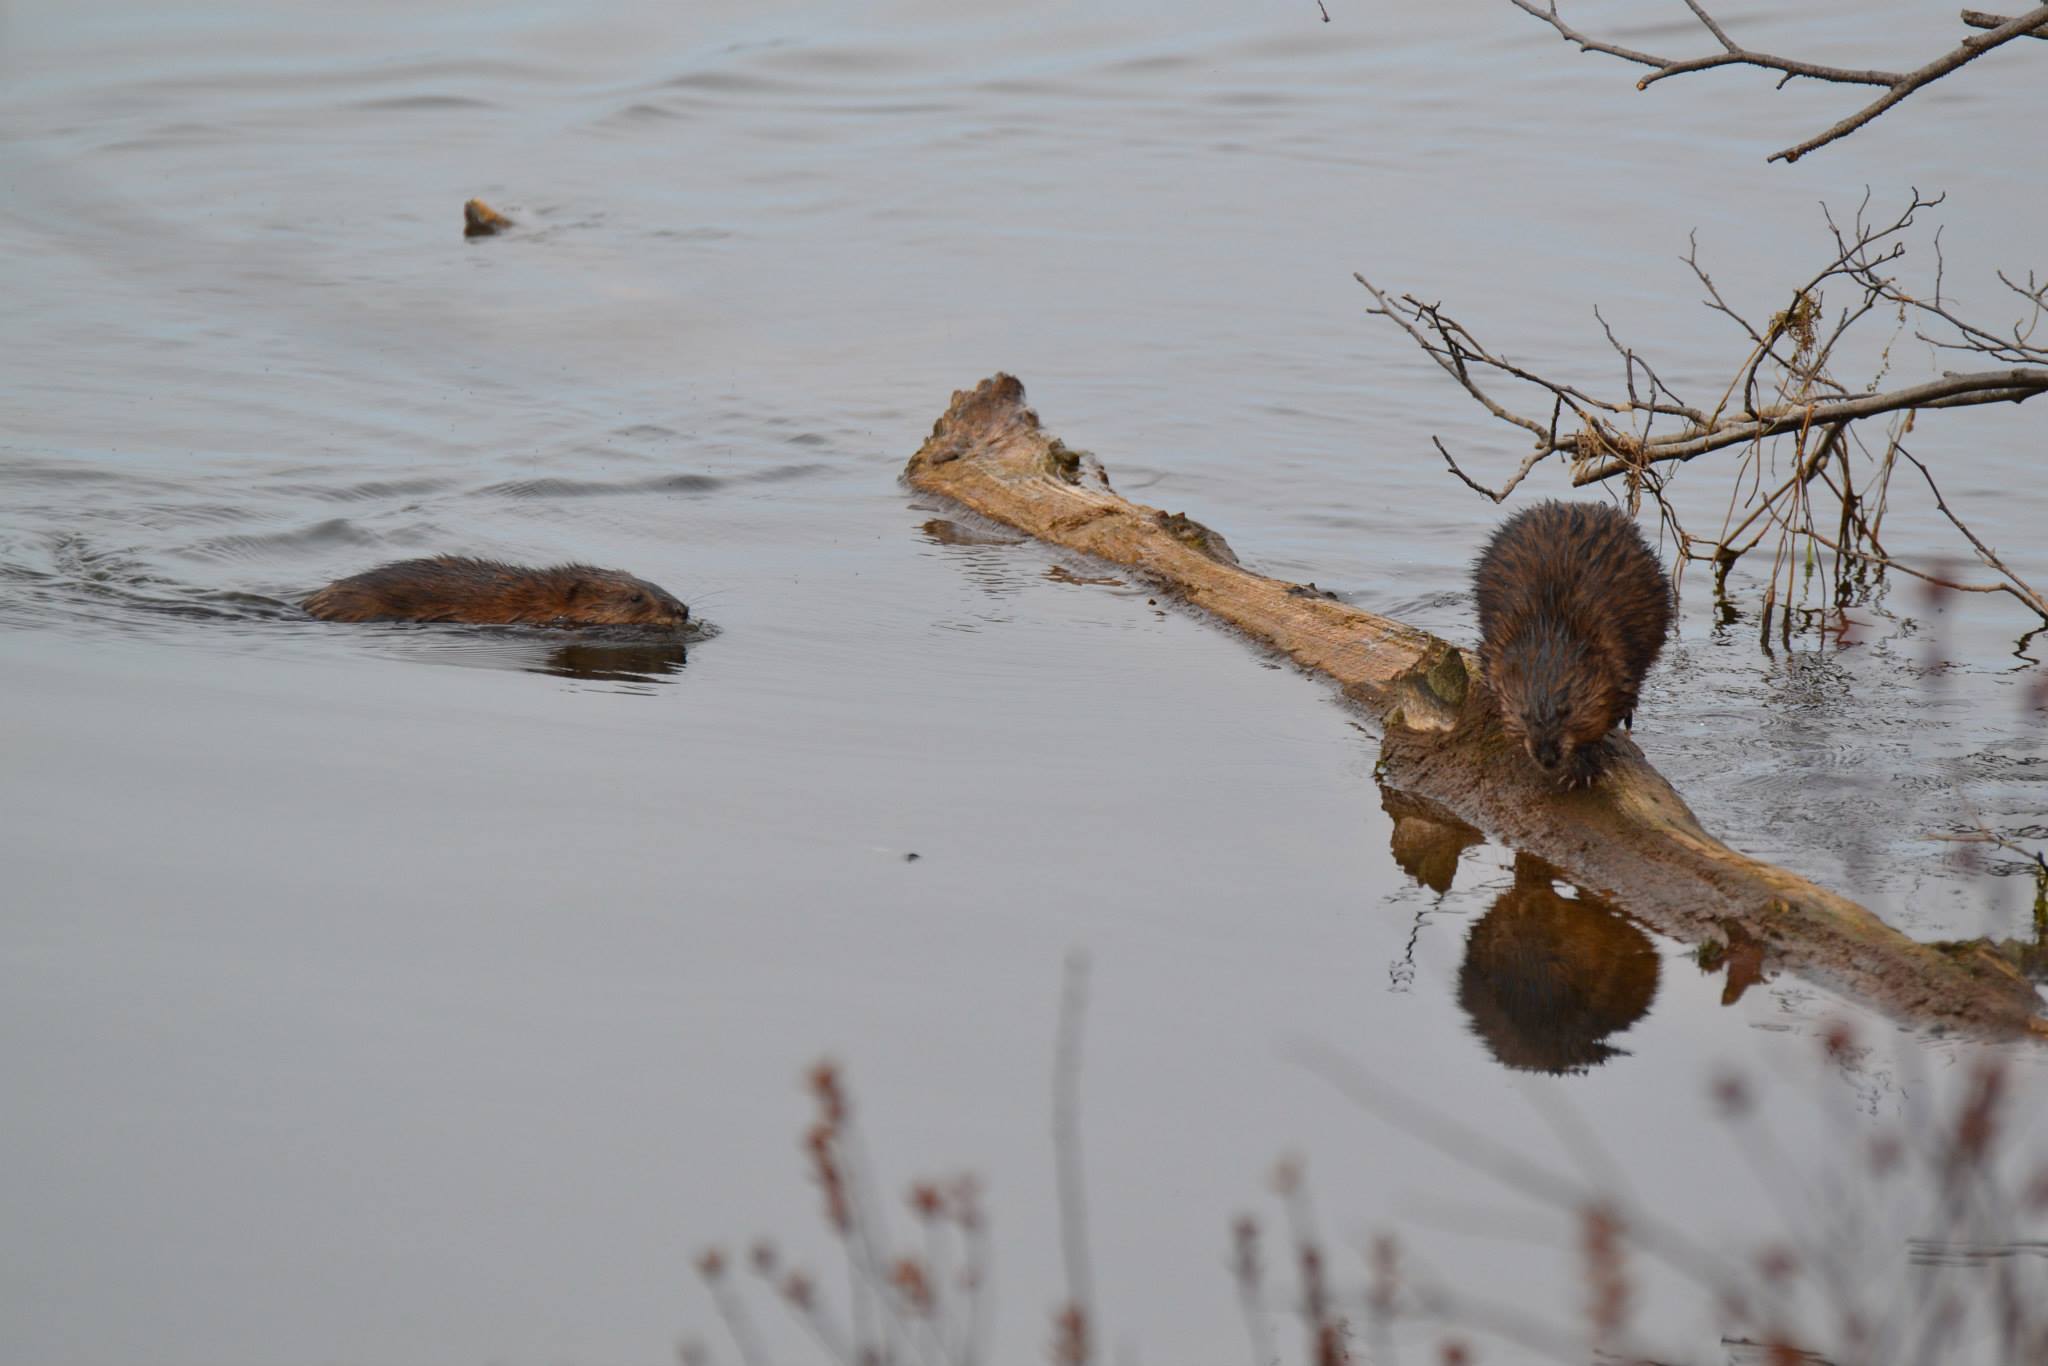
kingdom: Animalia
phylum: Chordata
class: Mammalia
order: Rodentia
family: Cricetidae
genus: Ondatra
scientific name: Ondatra zibethicus
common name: Muskrat
